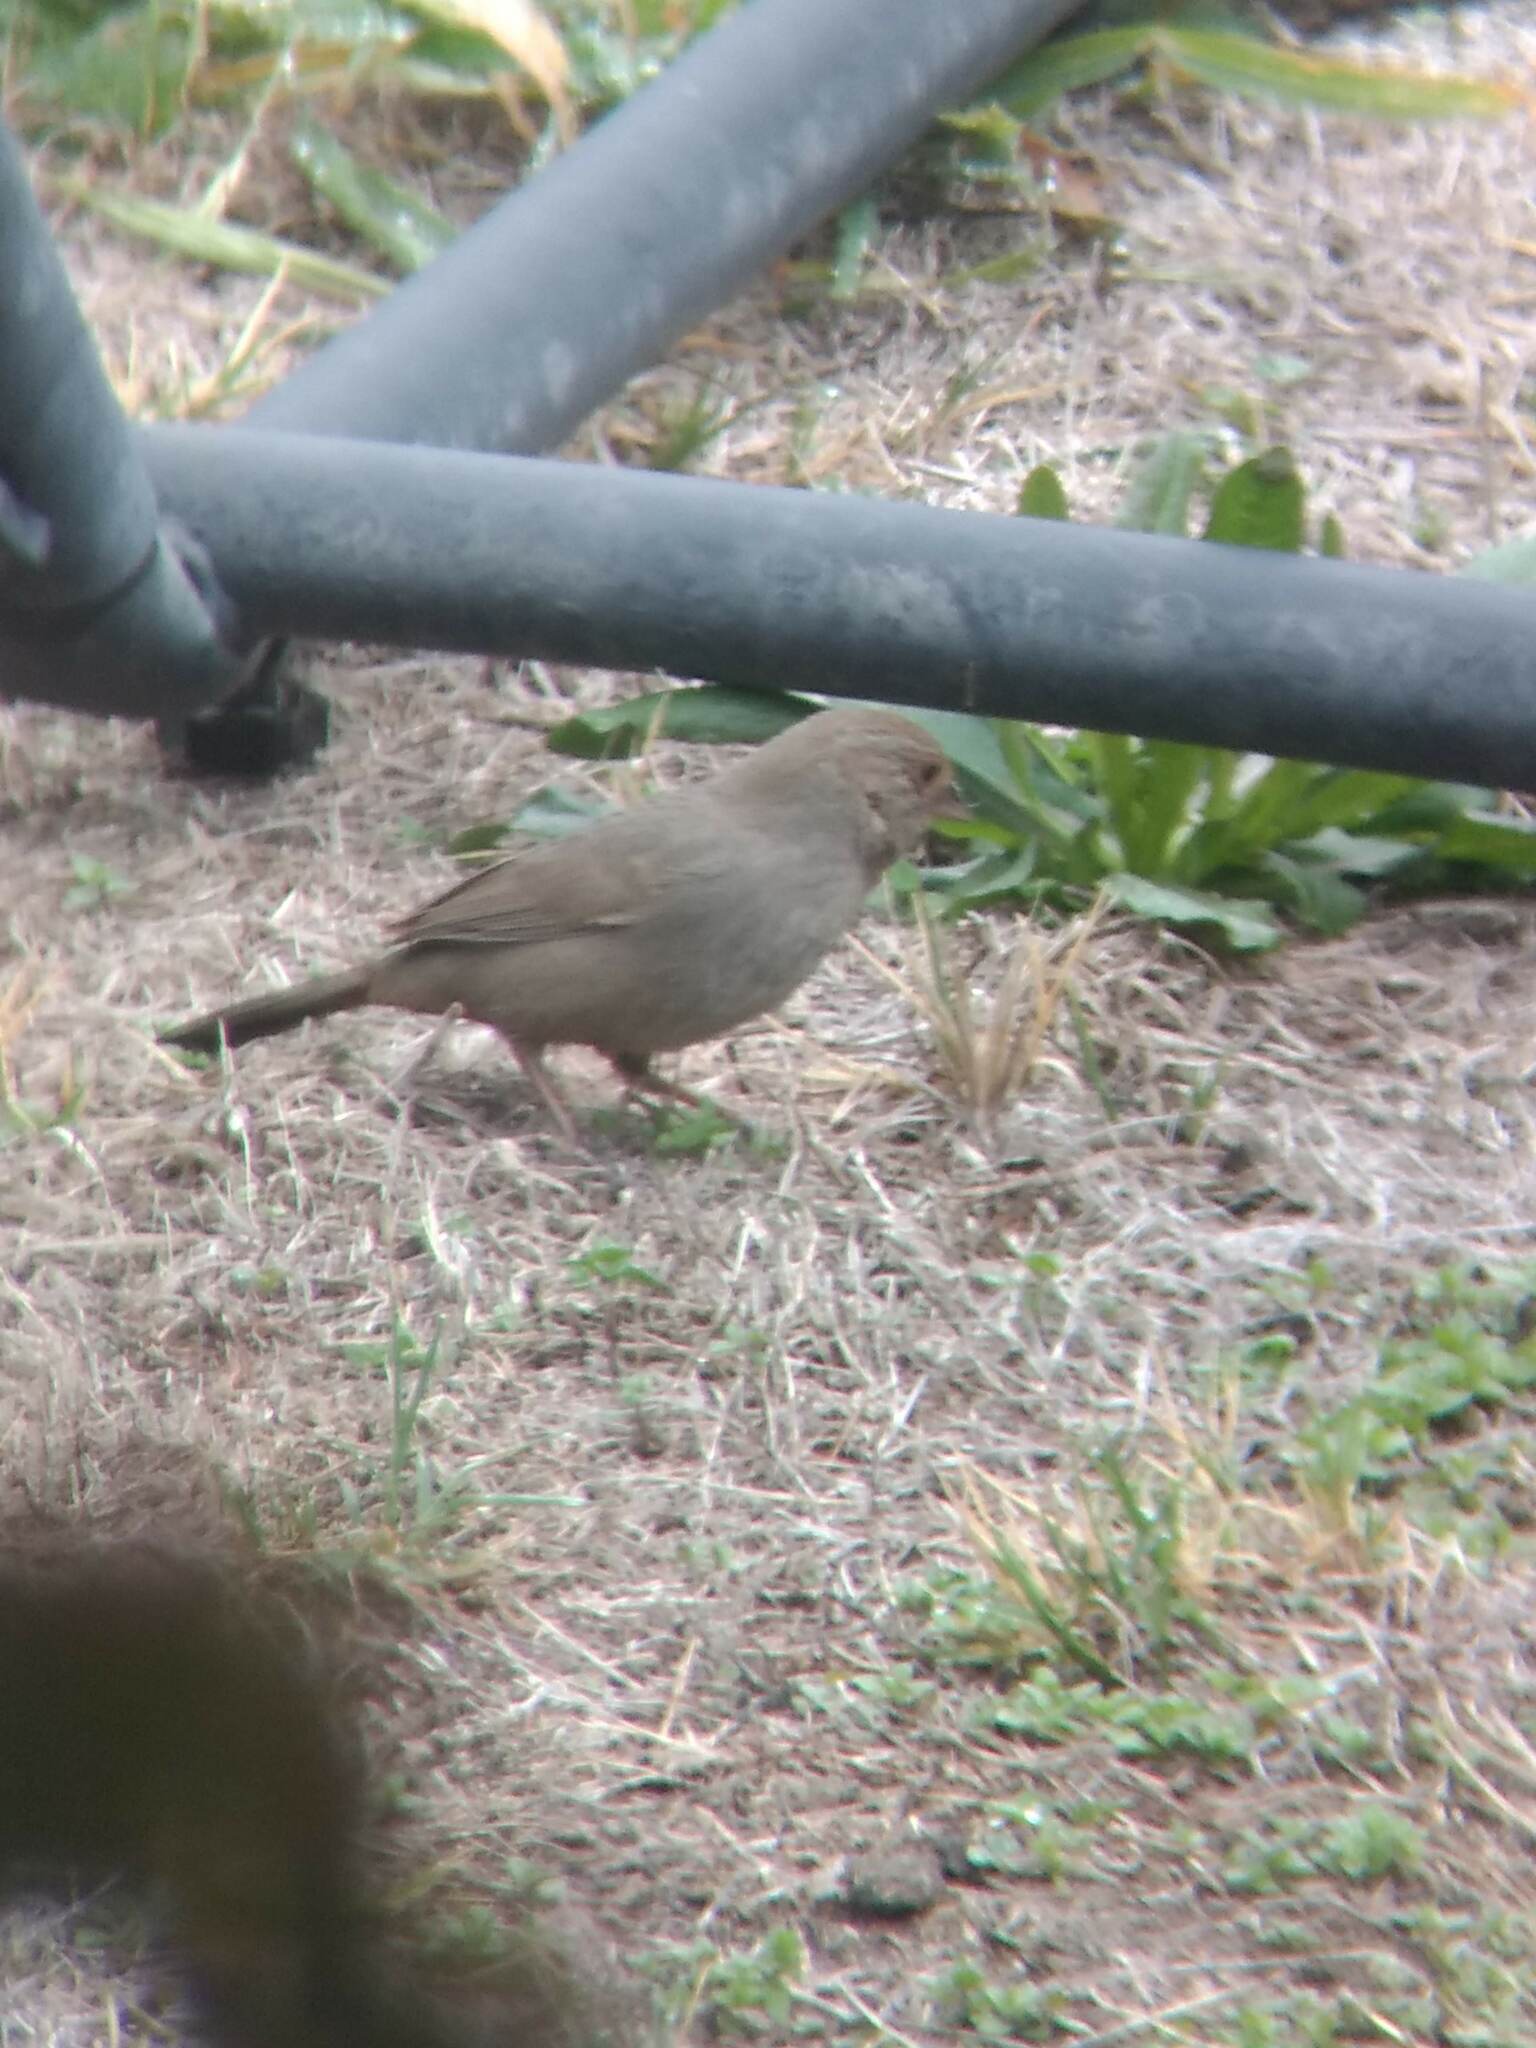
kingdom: Animalia
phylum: Chordata
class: Aves
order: Passeriformes
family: Passerellidae
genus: Melozone
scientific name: Melozone crissalis
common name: California towhee
